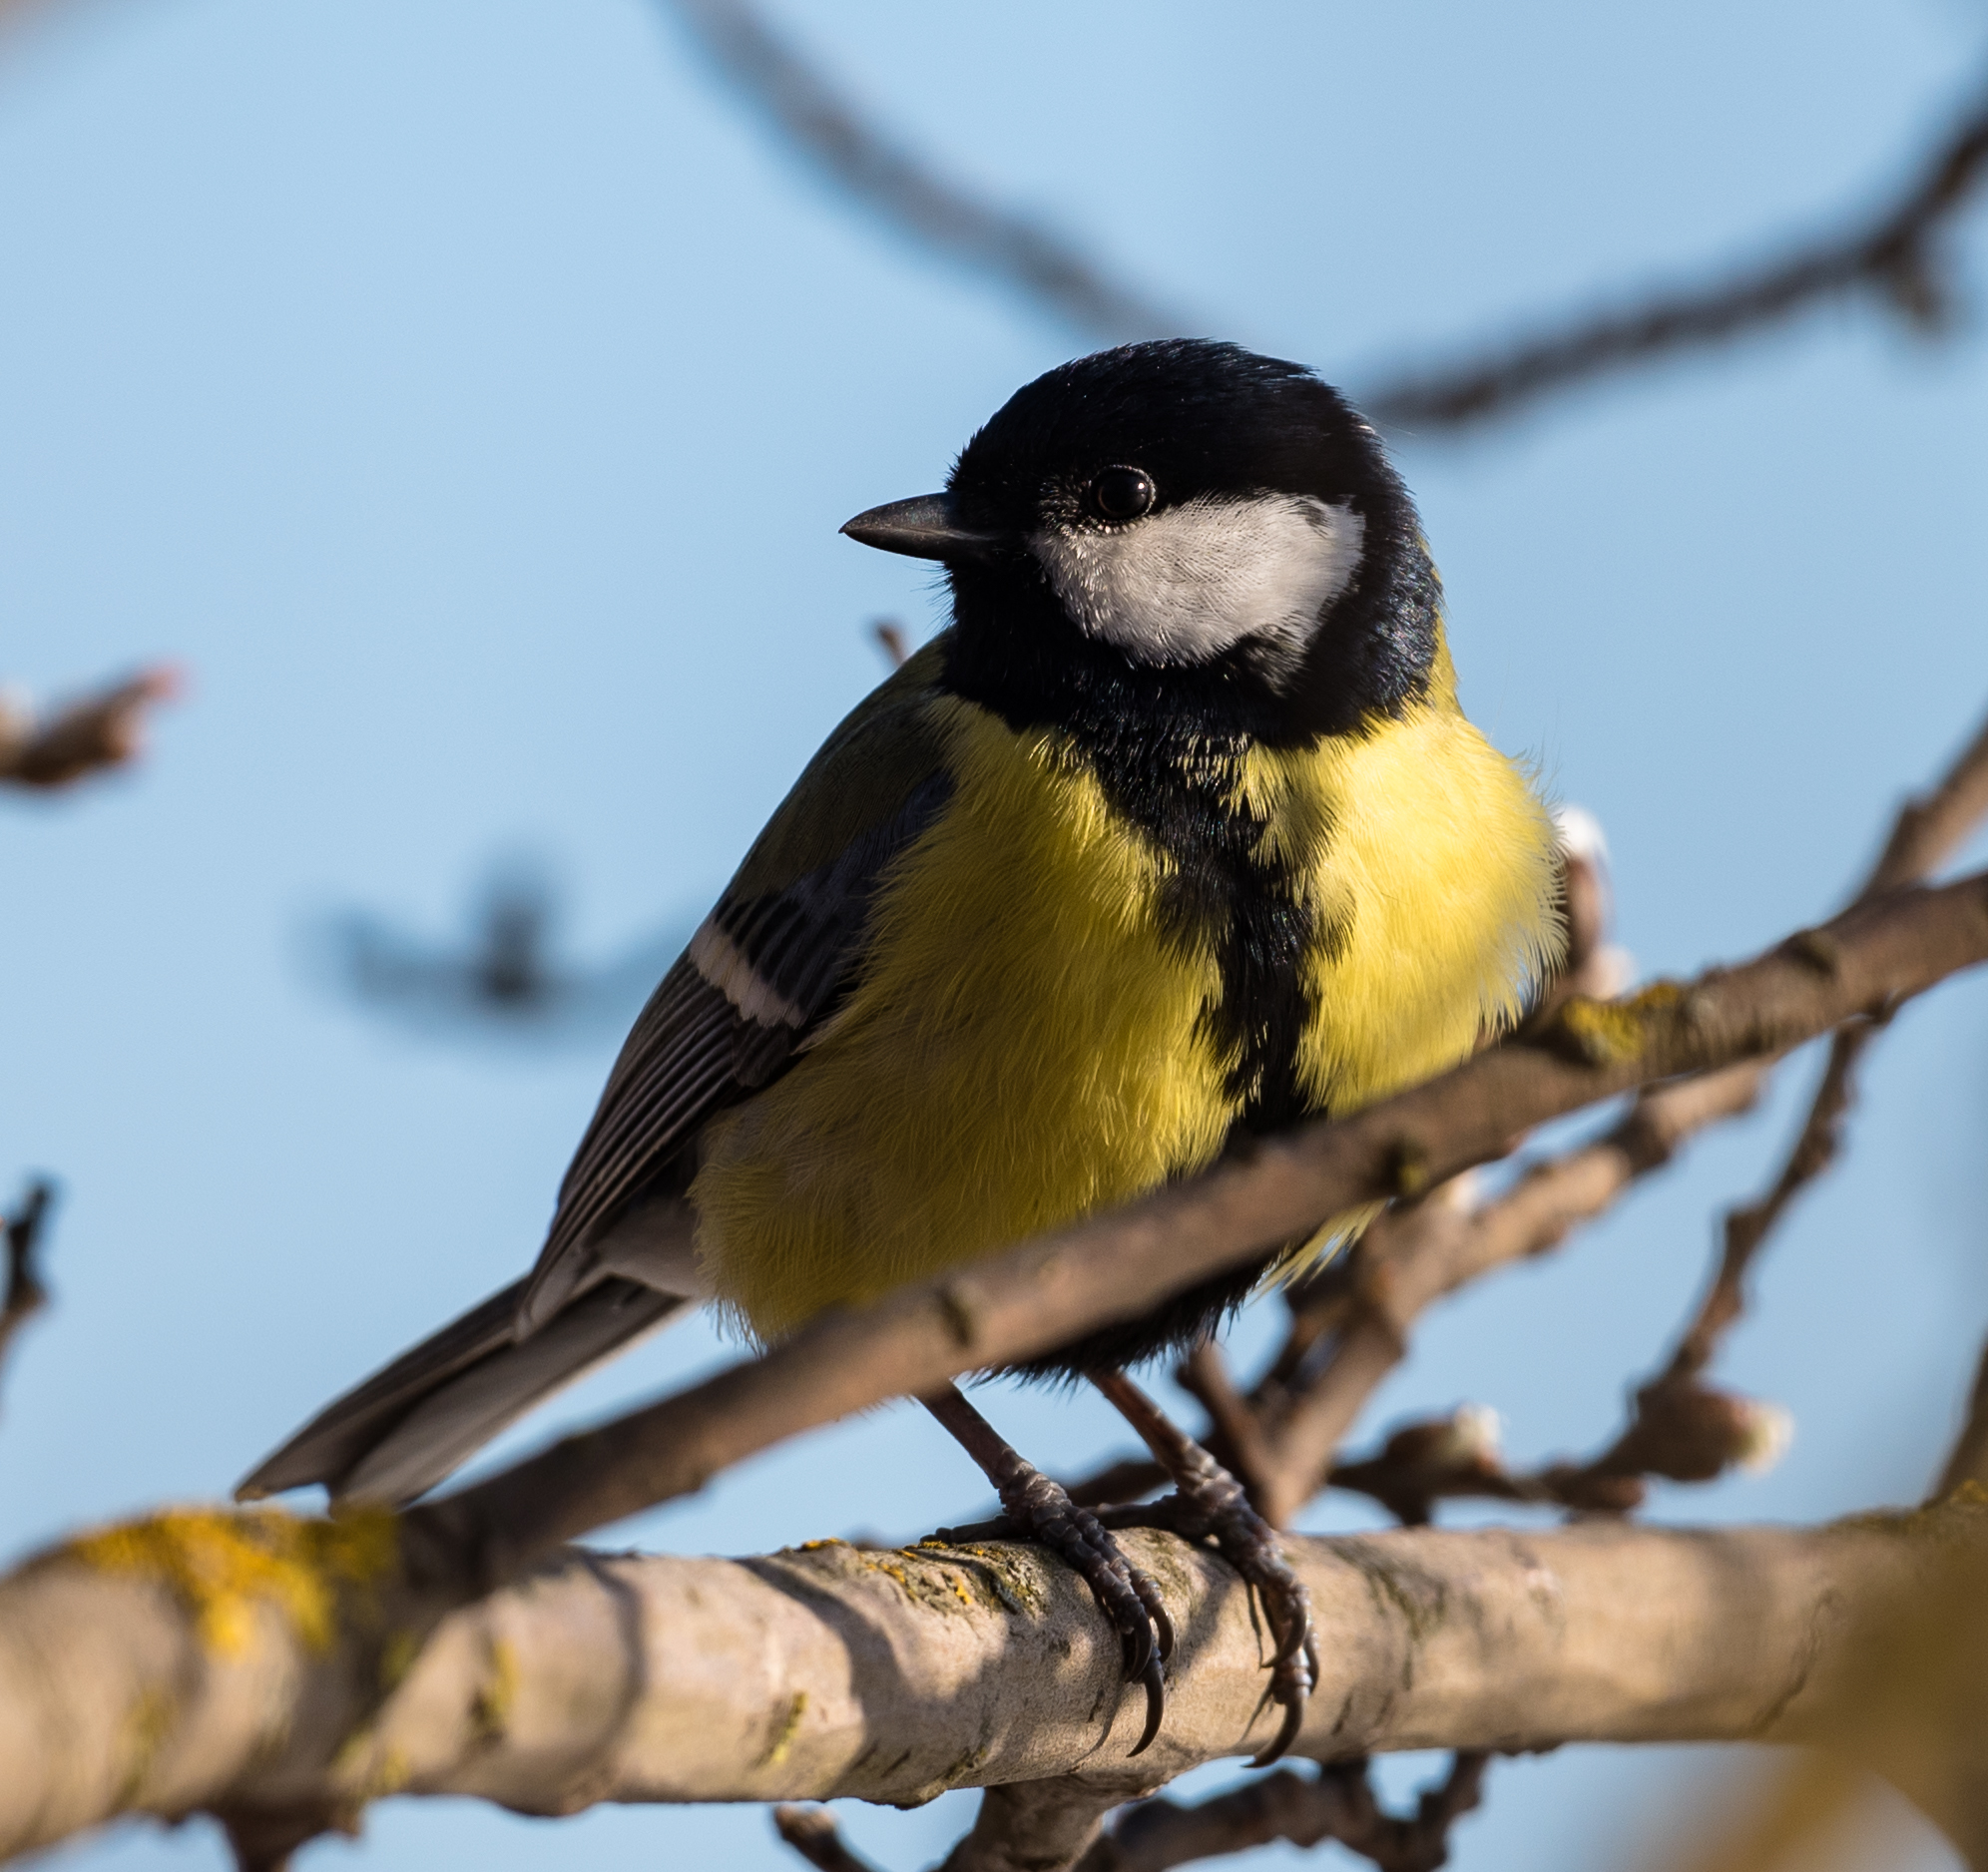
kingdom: Animalia
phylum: Chordata
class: Aves
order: Passeriformes
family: Paridae
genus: Parus
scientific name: Parus major
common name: Great tit
